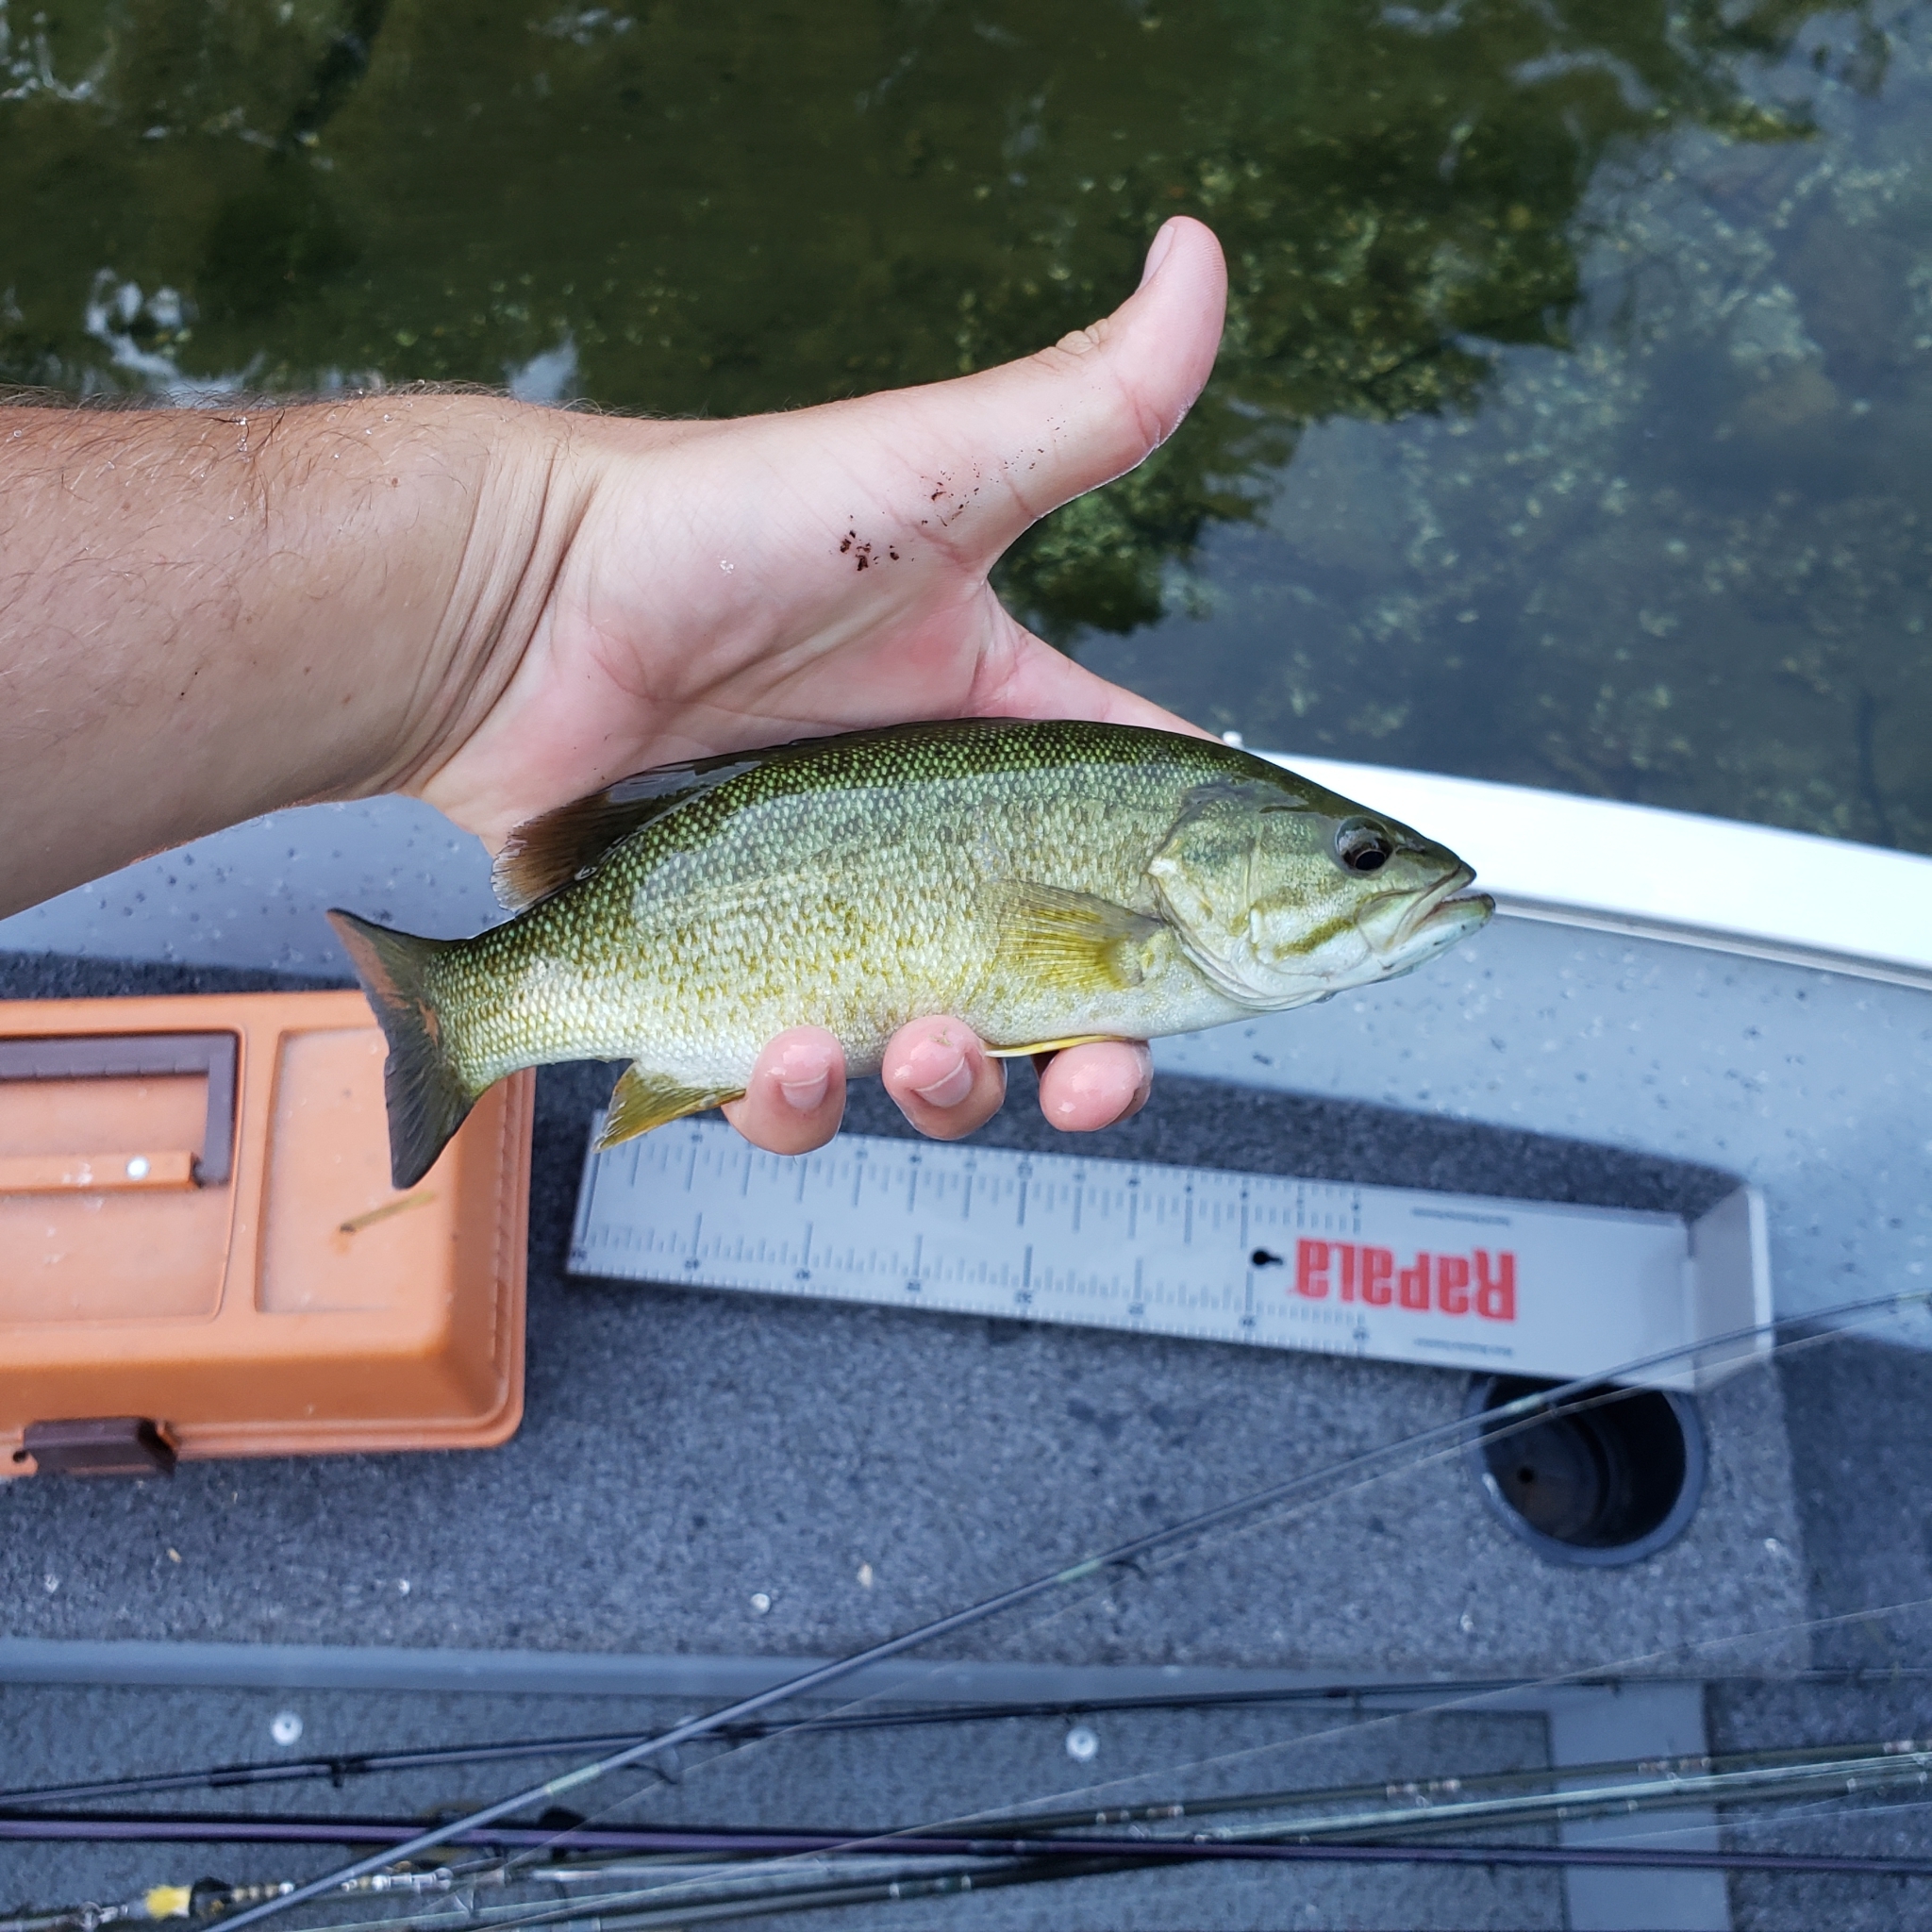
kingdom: Animalia
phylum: Chordata
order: Perciformes
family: Centrarchidae
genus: Micropterus
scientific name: Micropterus dolomieu
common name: Smallmouth bass
